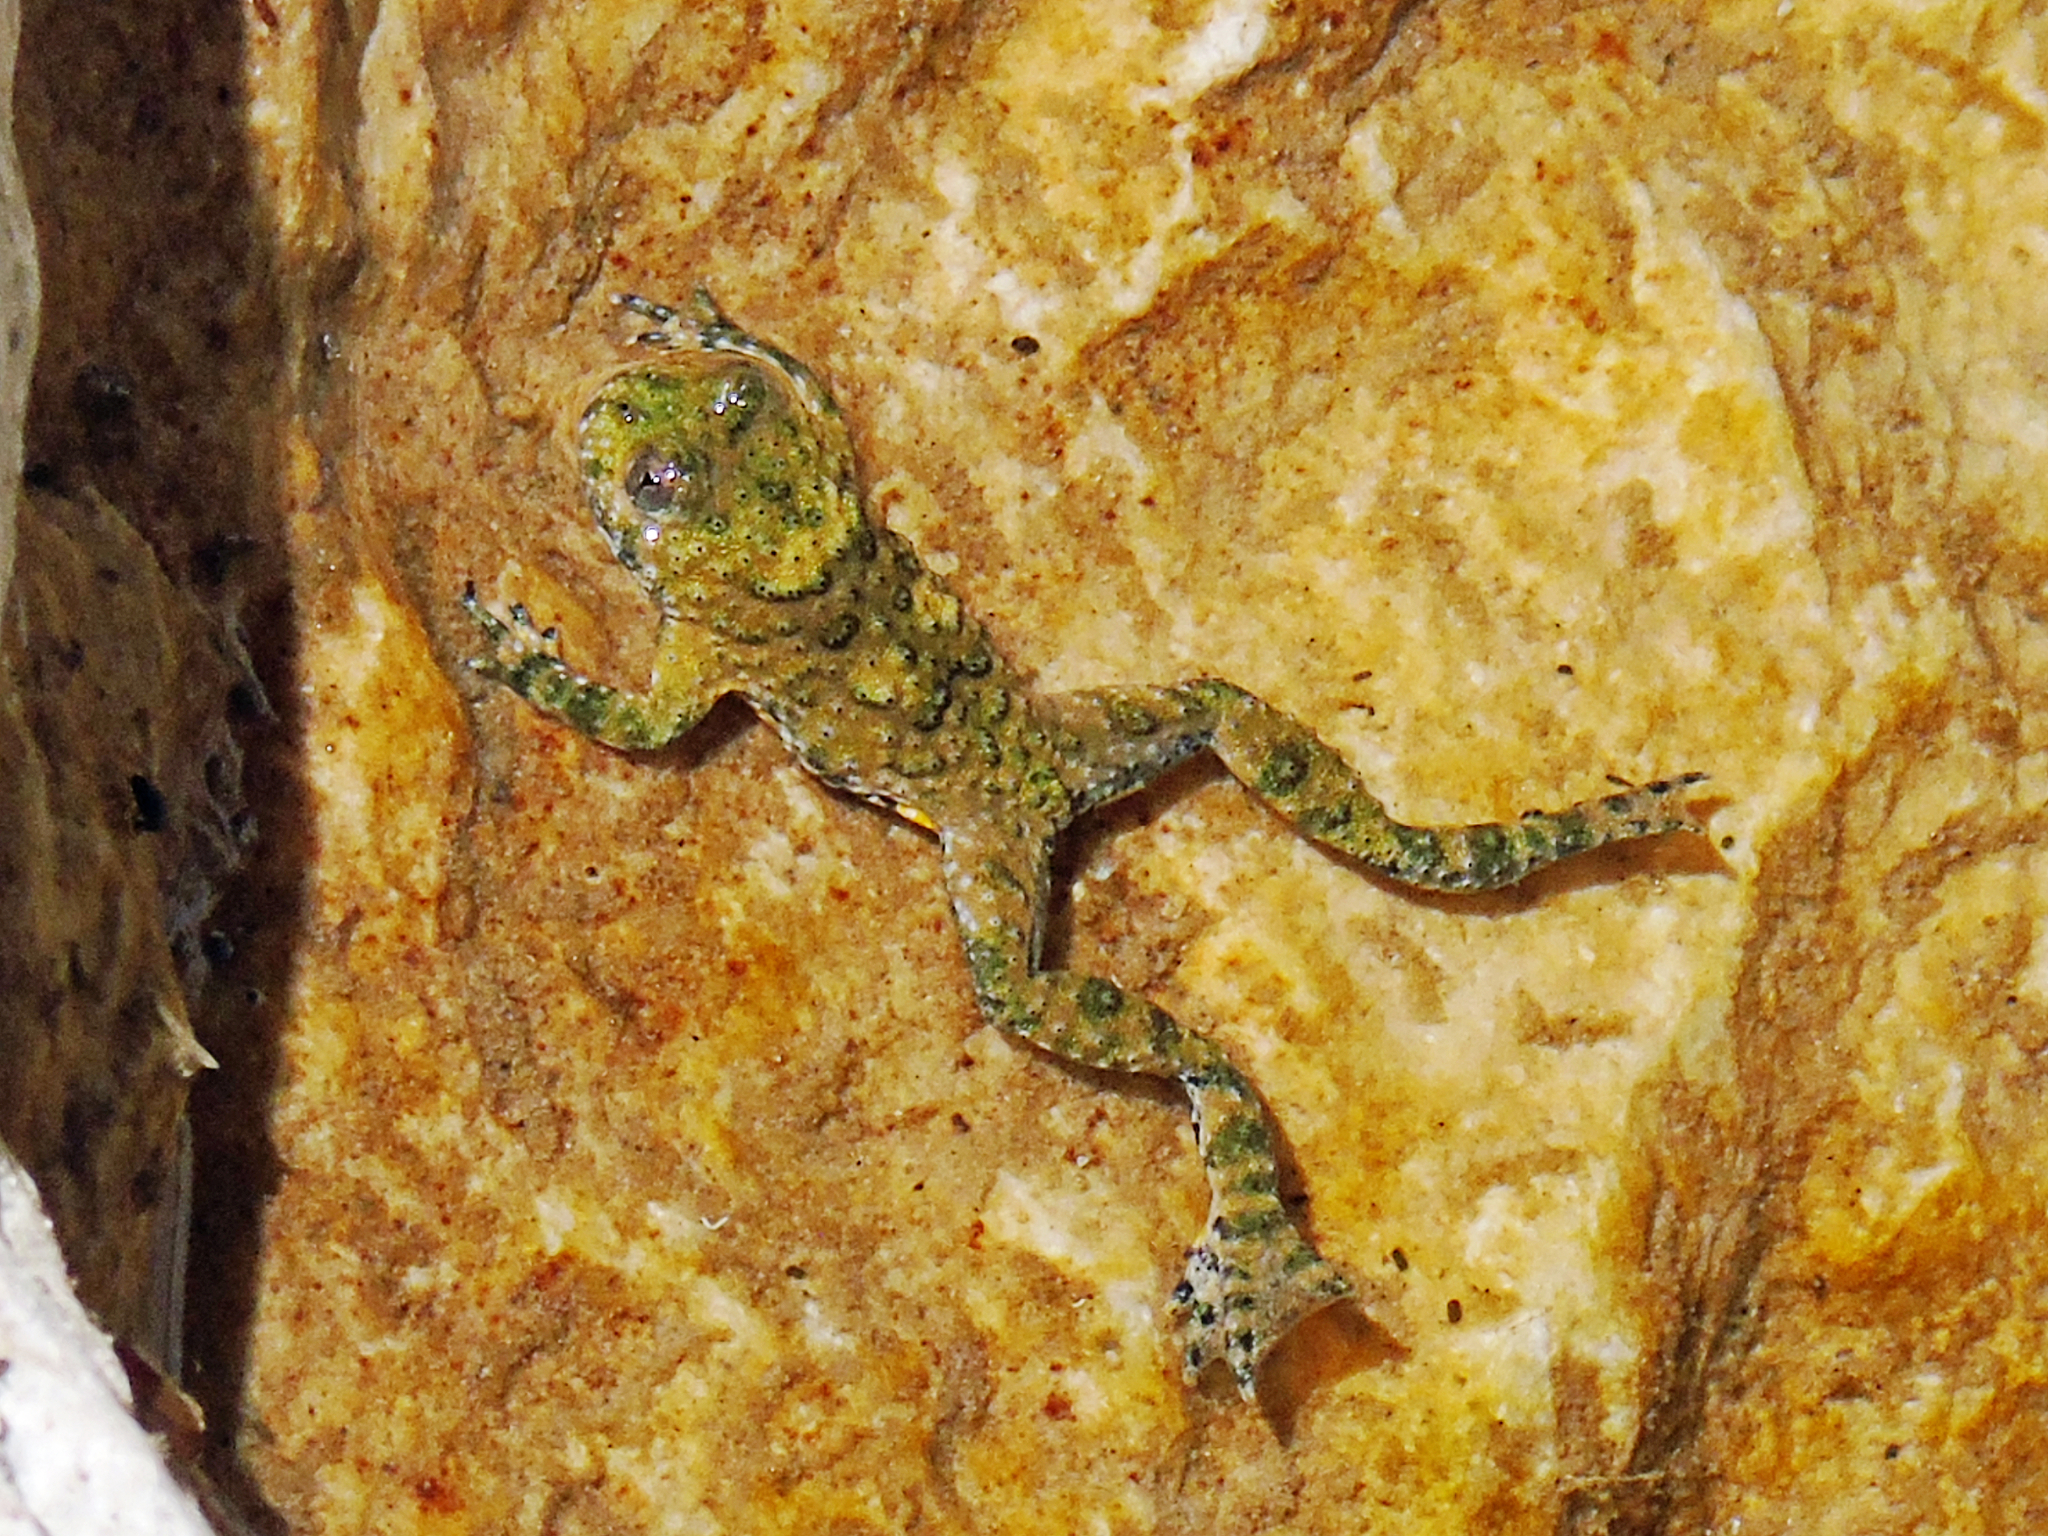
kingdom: Animalia
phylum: Chordata
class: Amphibia
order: Anura
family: Bombinatoridae
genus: Bombina
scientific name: Bombina variegata
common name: Yellow-bellied toad
